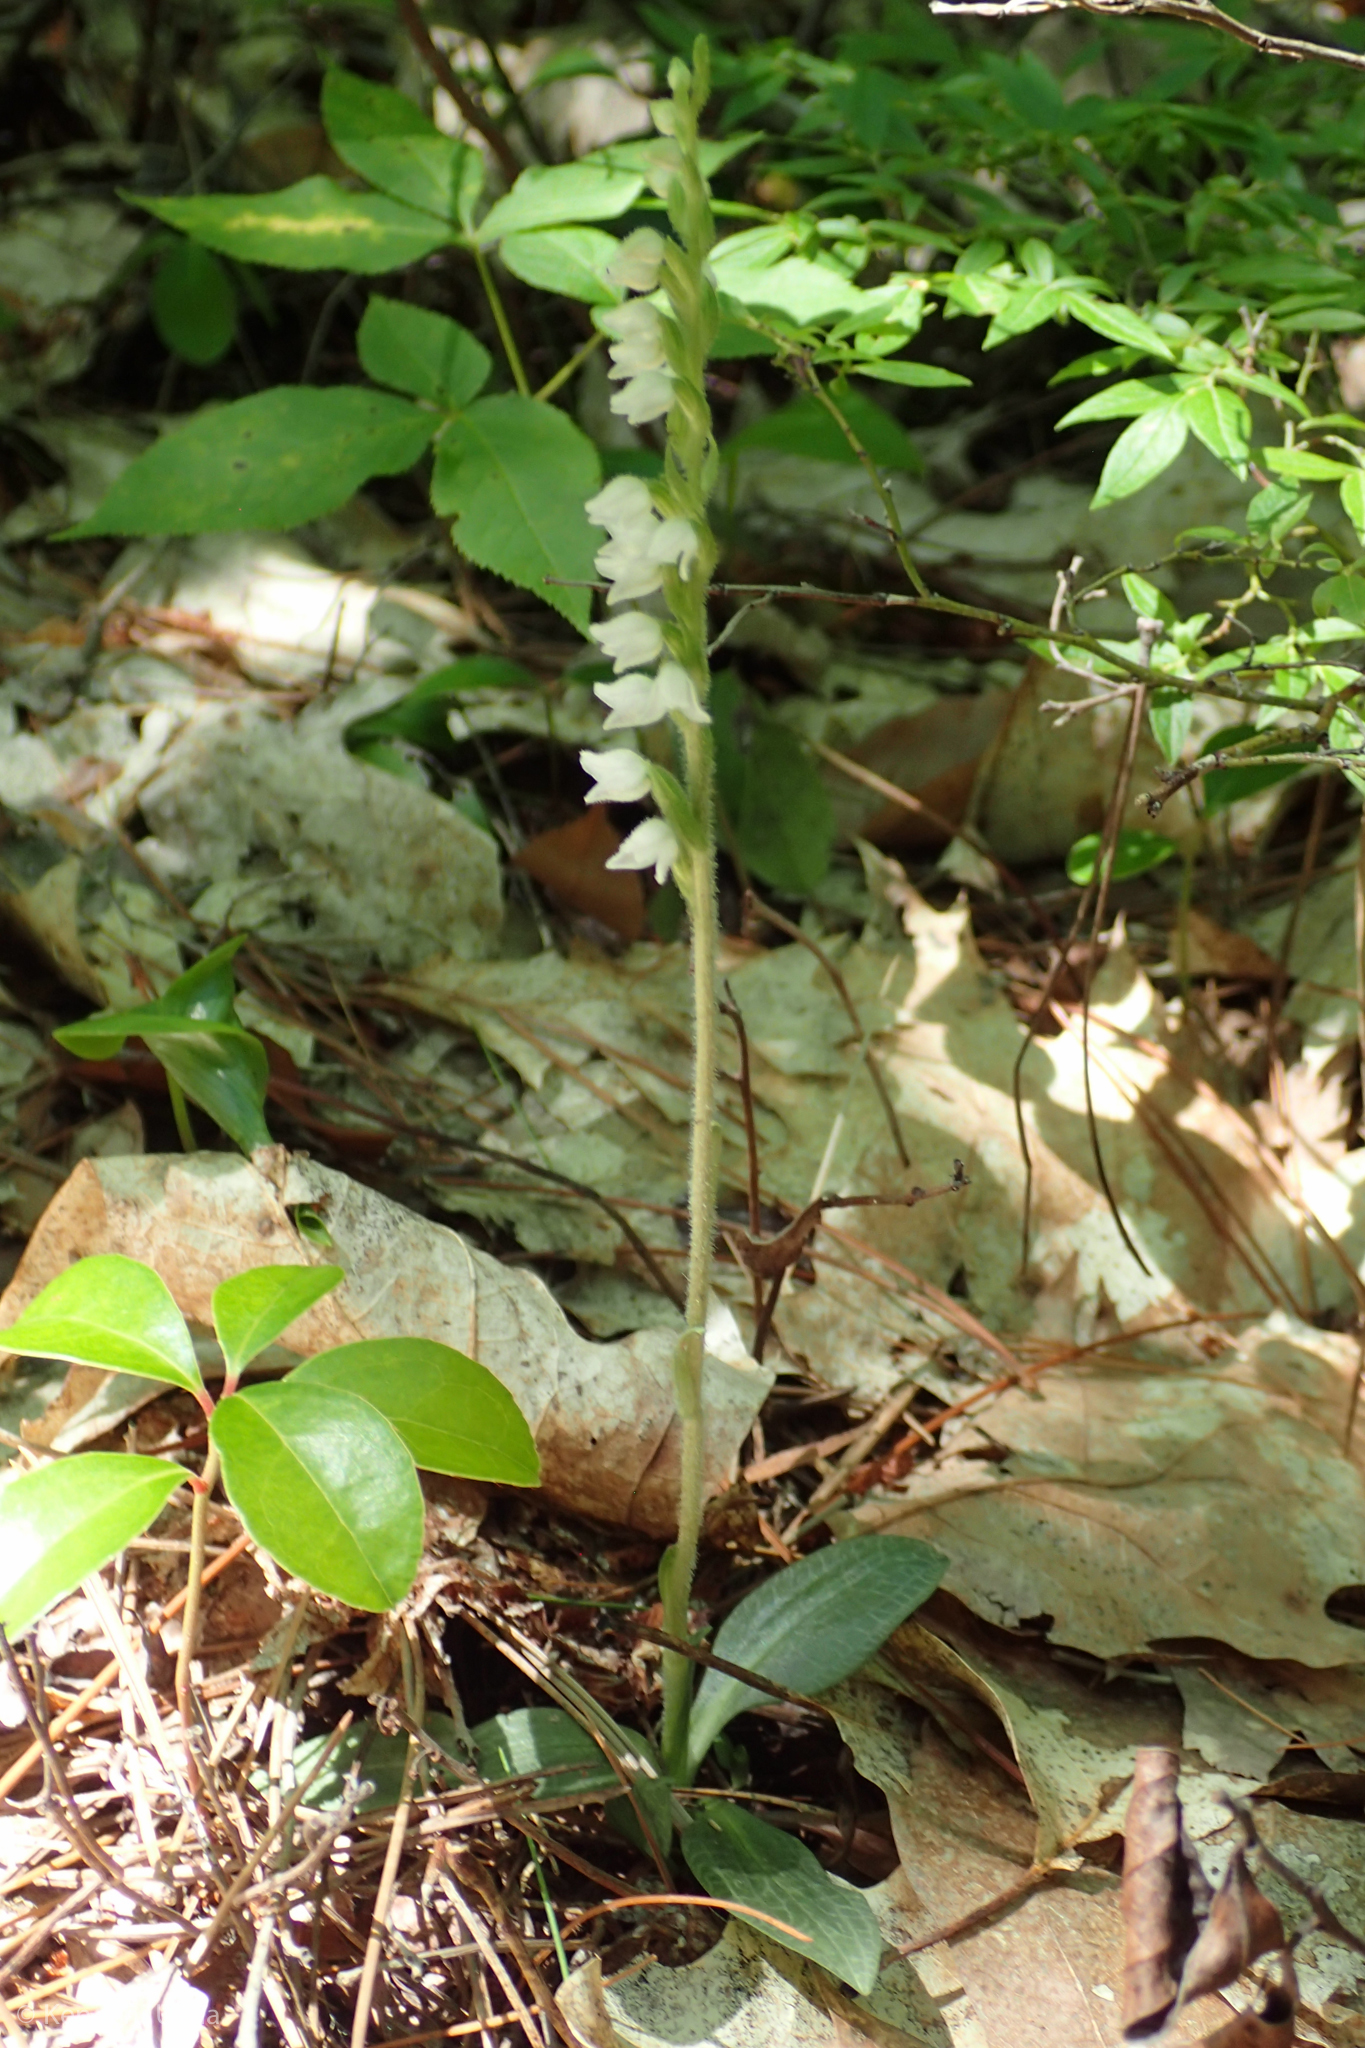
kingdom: Plantae
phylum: Tracheophyta
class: Liliopsida
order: Asparagales
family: Orchidaceae
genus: Goodyera
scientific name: Goodyera tesselata
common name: Checkered rattlesnake-plantain
